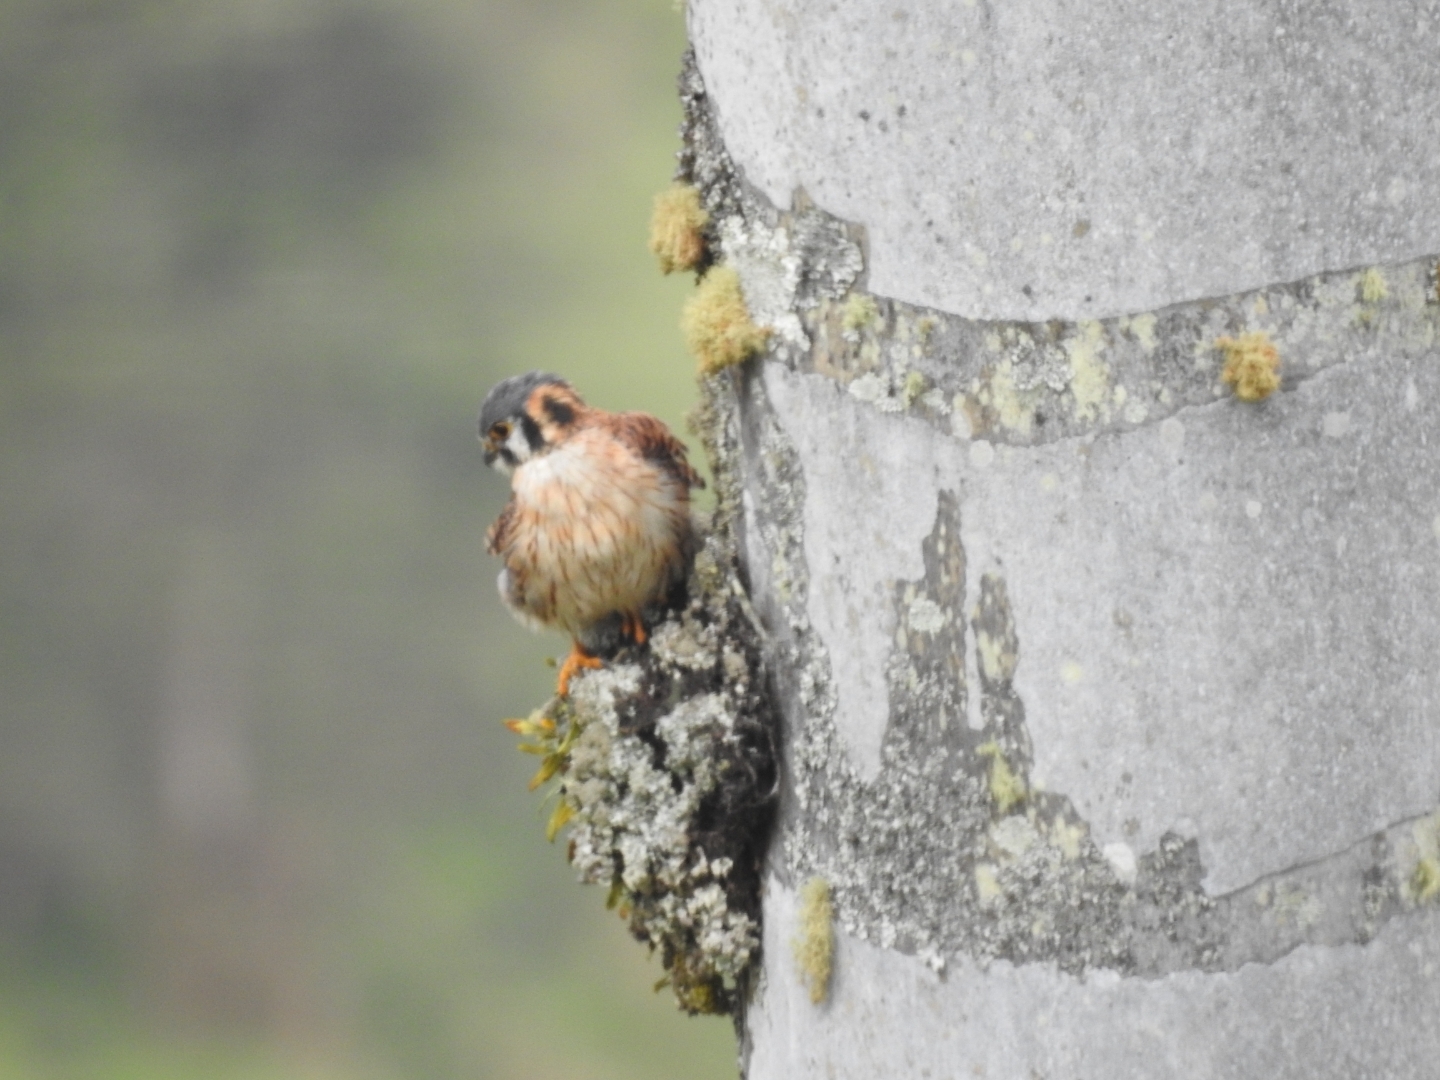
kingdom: Animalia
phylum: Chordata
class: Aves
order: Falconiformes
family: Falconidae
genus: Falco
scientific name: Falco sparverius
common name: American kestrel
